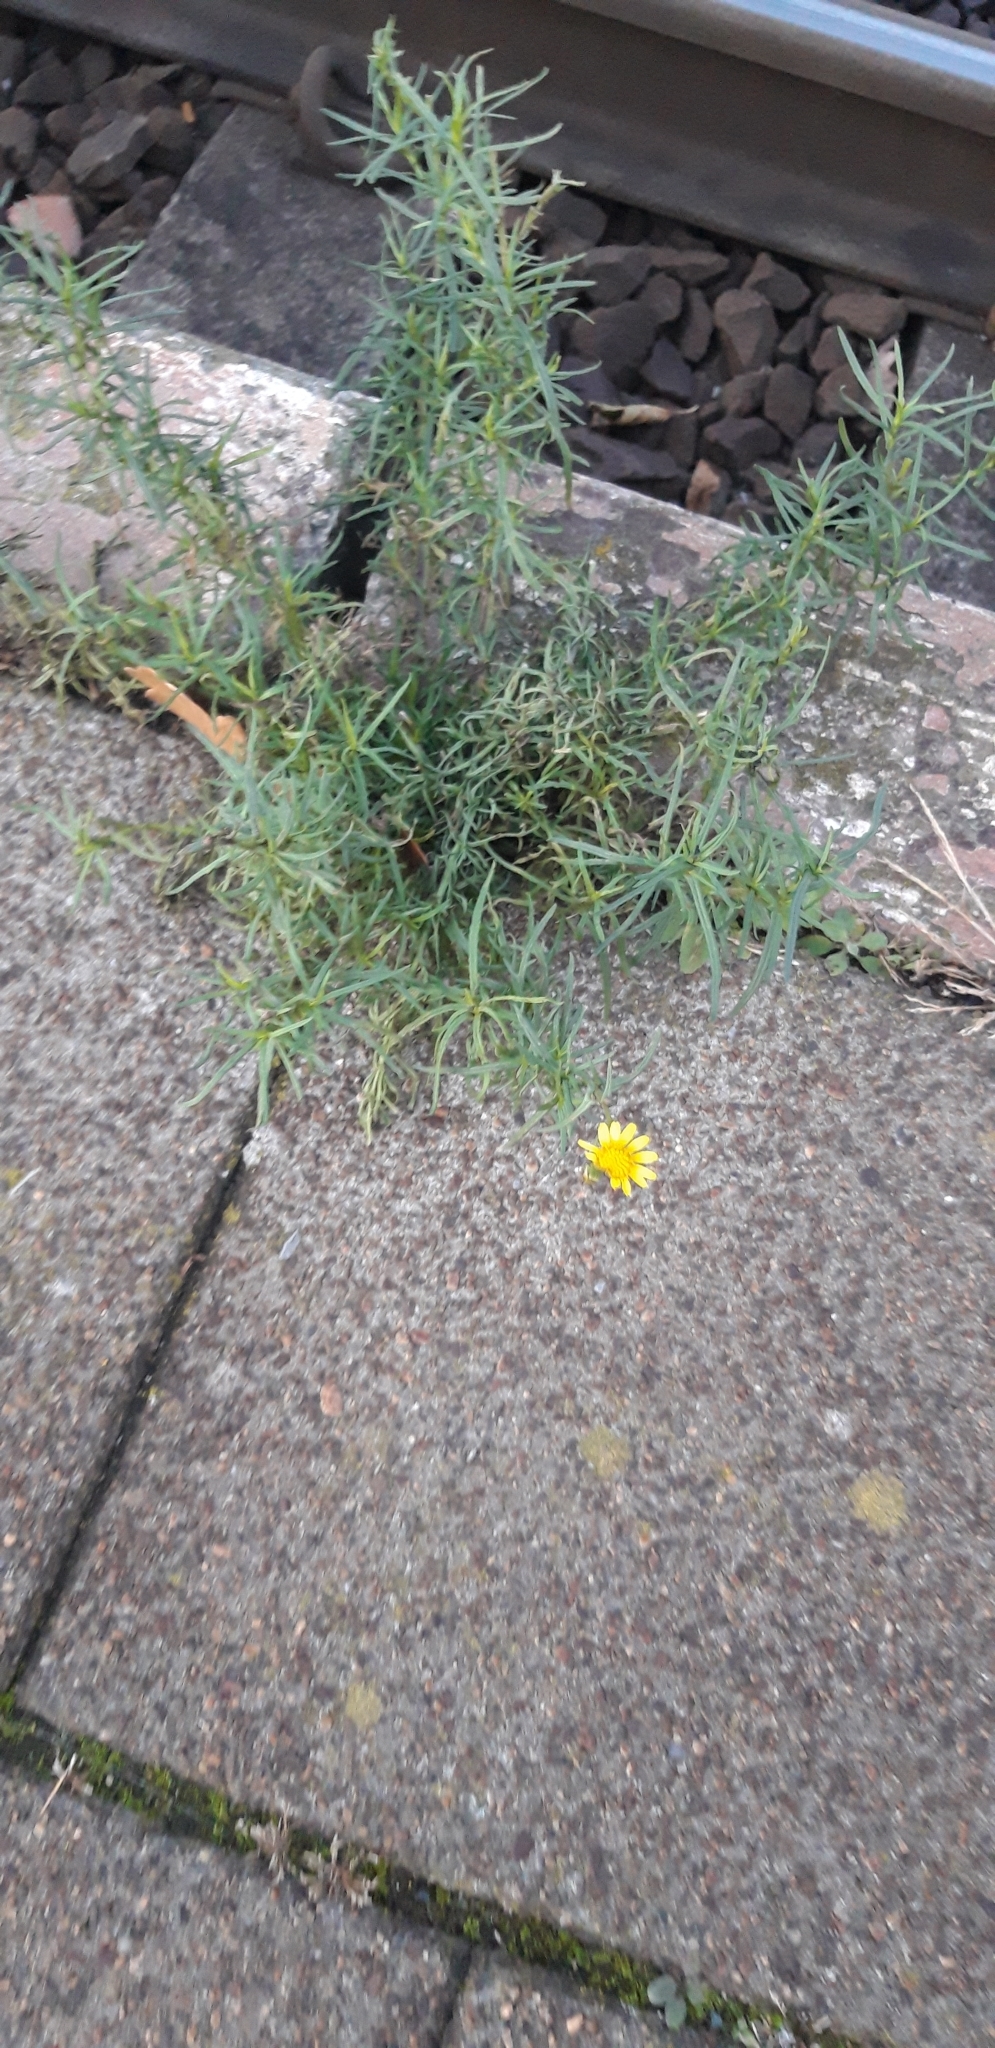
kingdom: Plantae
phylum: Tracheophyta
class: Magnoliopsida
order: Asterales
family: Asteraceae
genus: Senecio
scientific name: Senecio inaequidens
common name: Narrow-leaved ragwort
